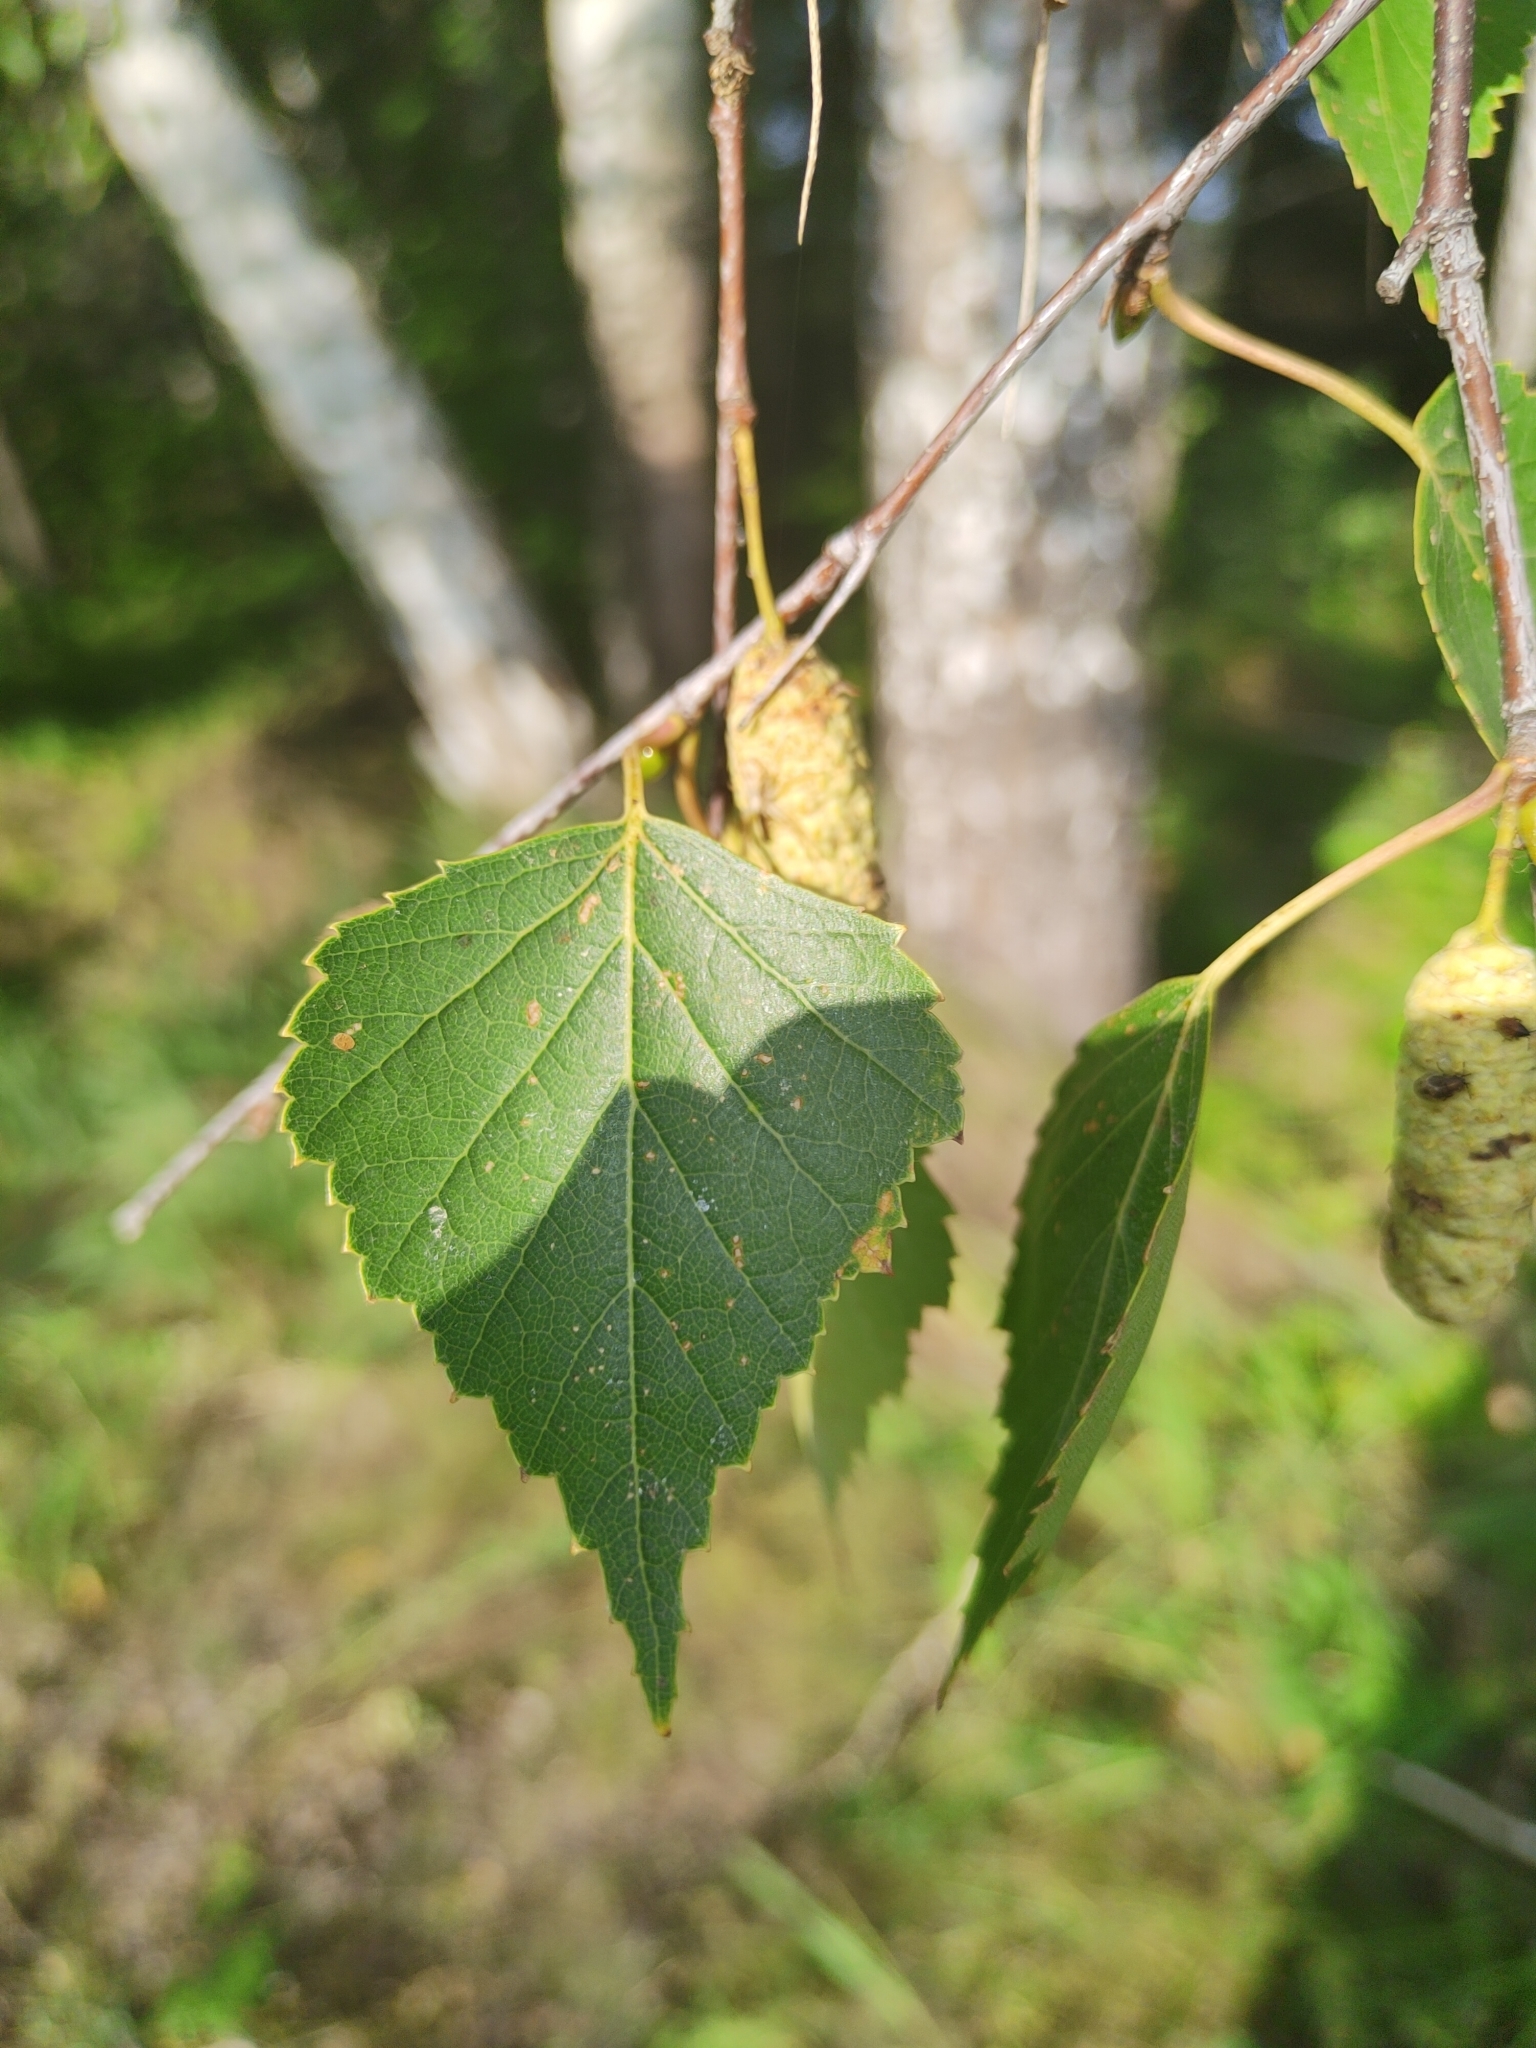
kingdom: Plantae
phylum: Tracheophyta
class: Magnoliopsida
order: Fagales
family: Betulaceae
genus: Betula
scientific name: Betula pendula
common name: Silver birch
